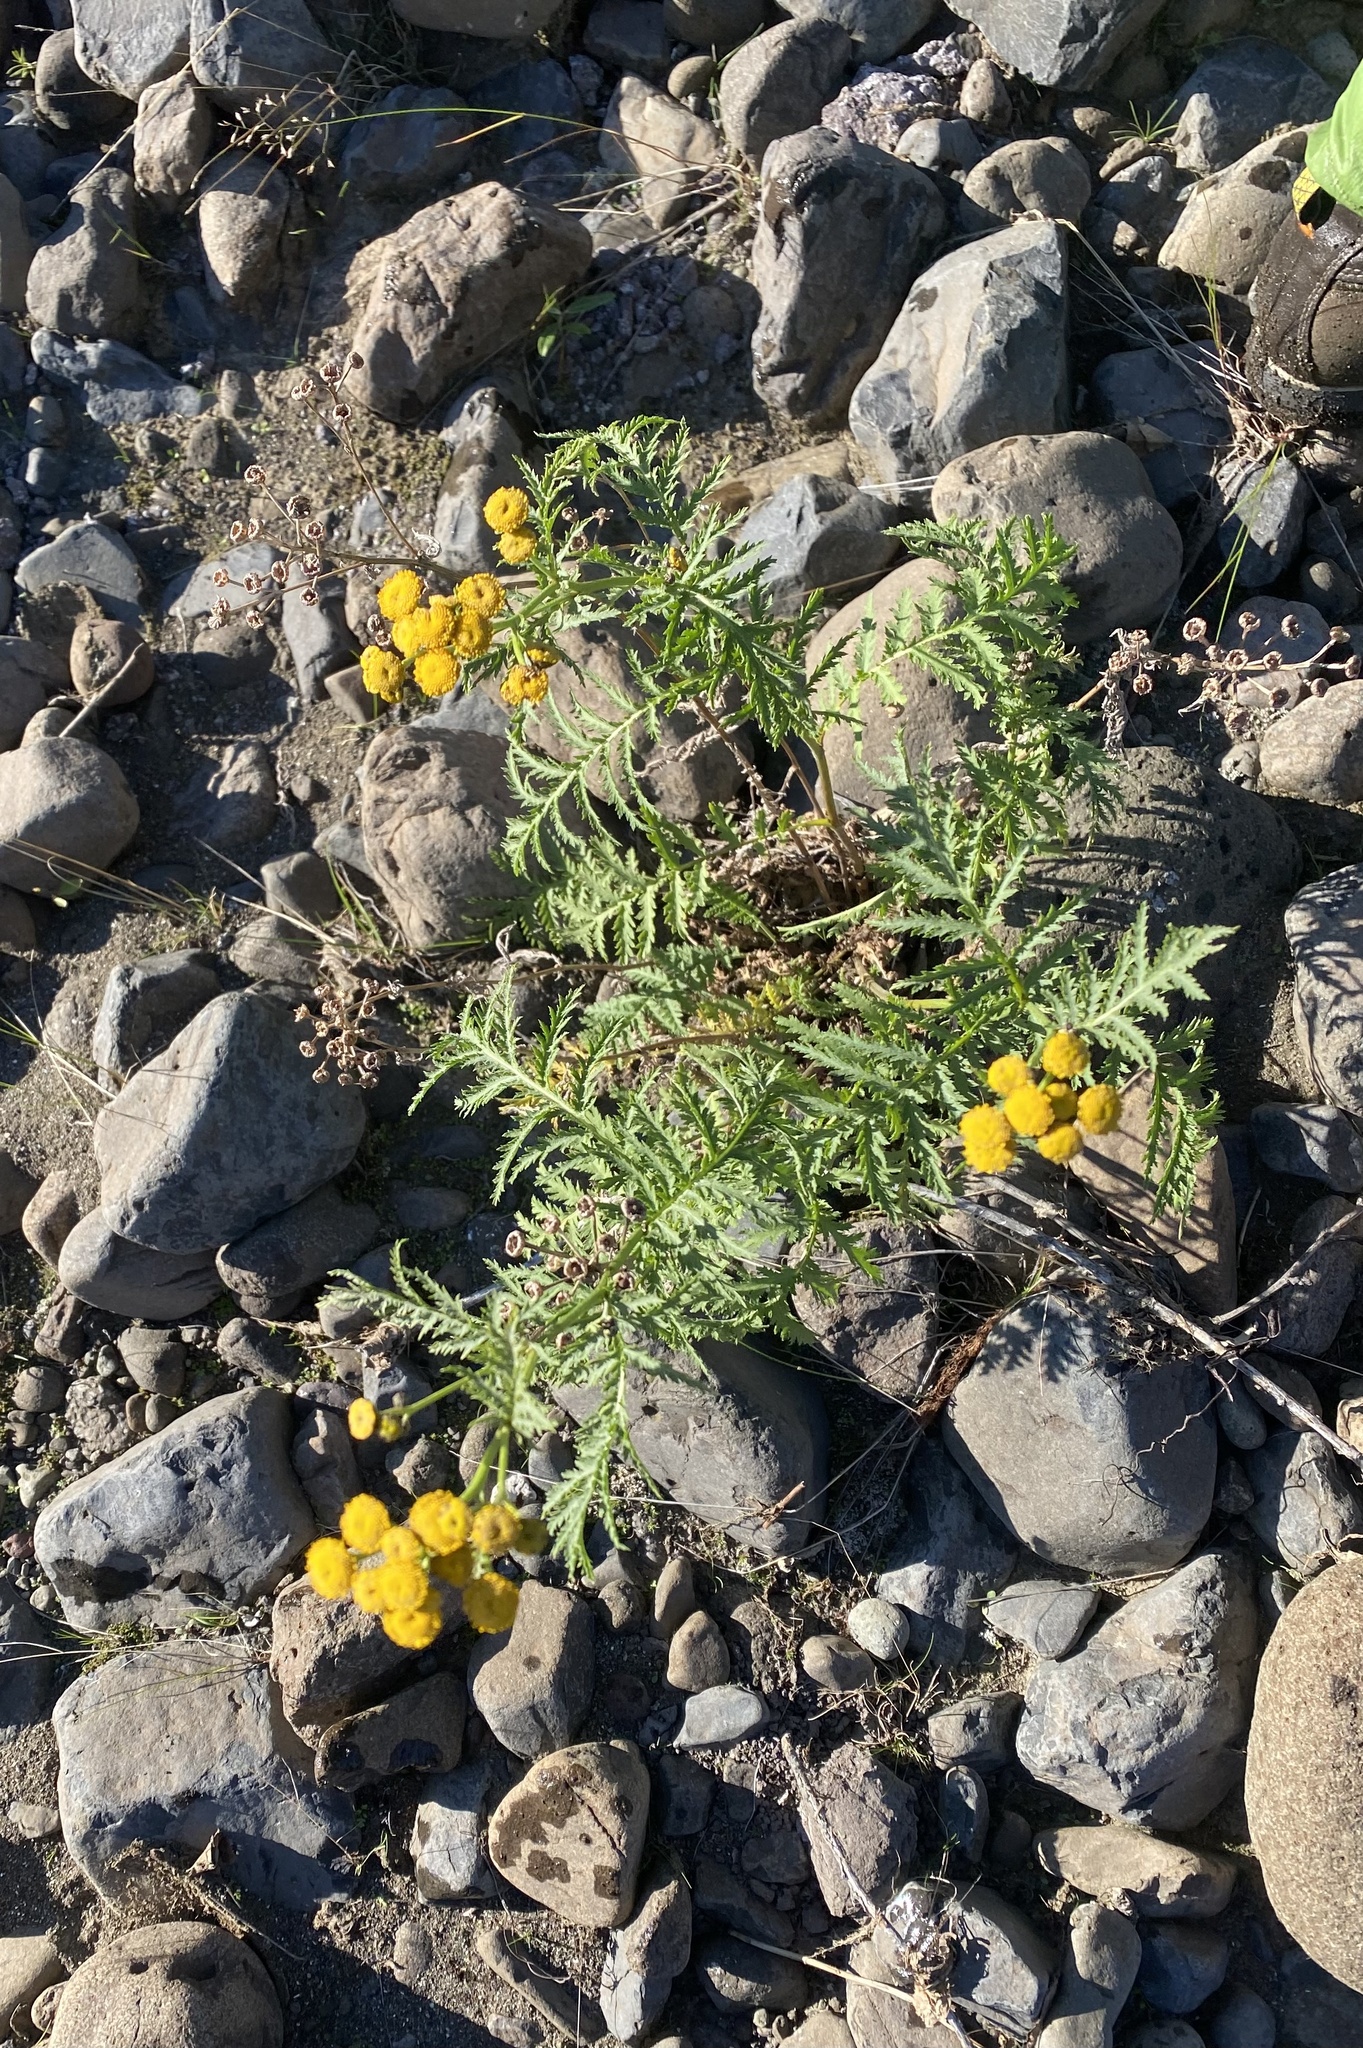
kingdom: Plantae
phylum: Tracheophyta
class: Magnoliopsida
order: Asterales
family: Asteraceae
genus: Tanacetum
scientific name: Tanacetum vulgare
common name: Common tansy
